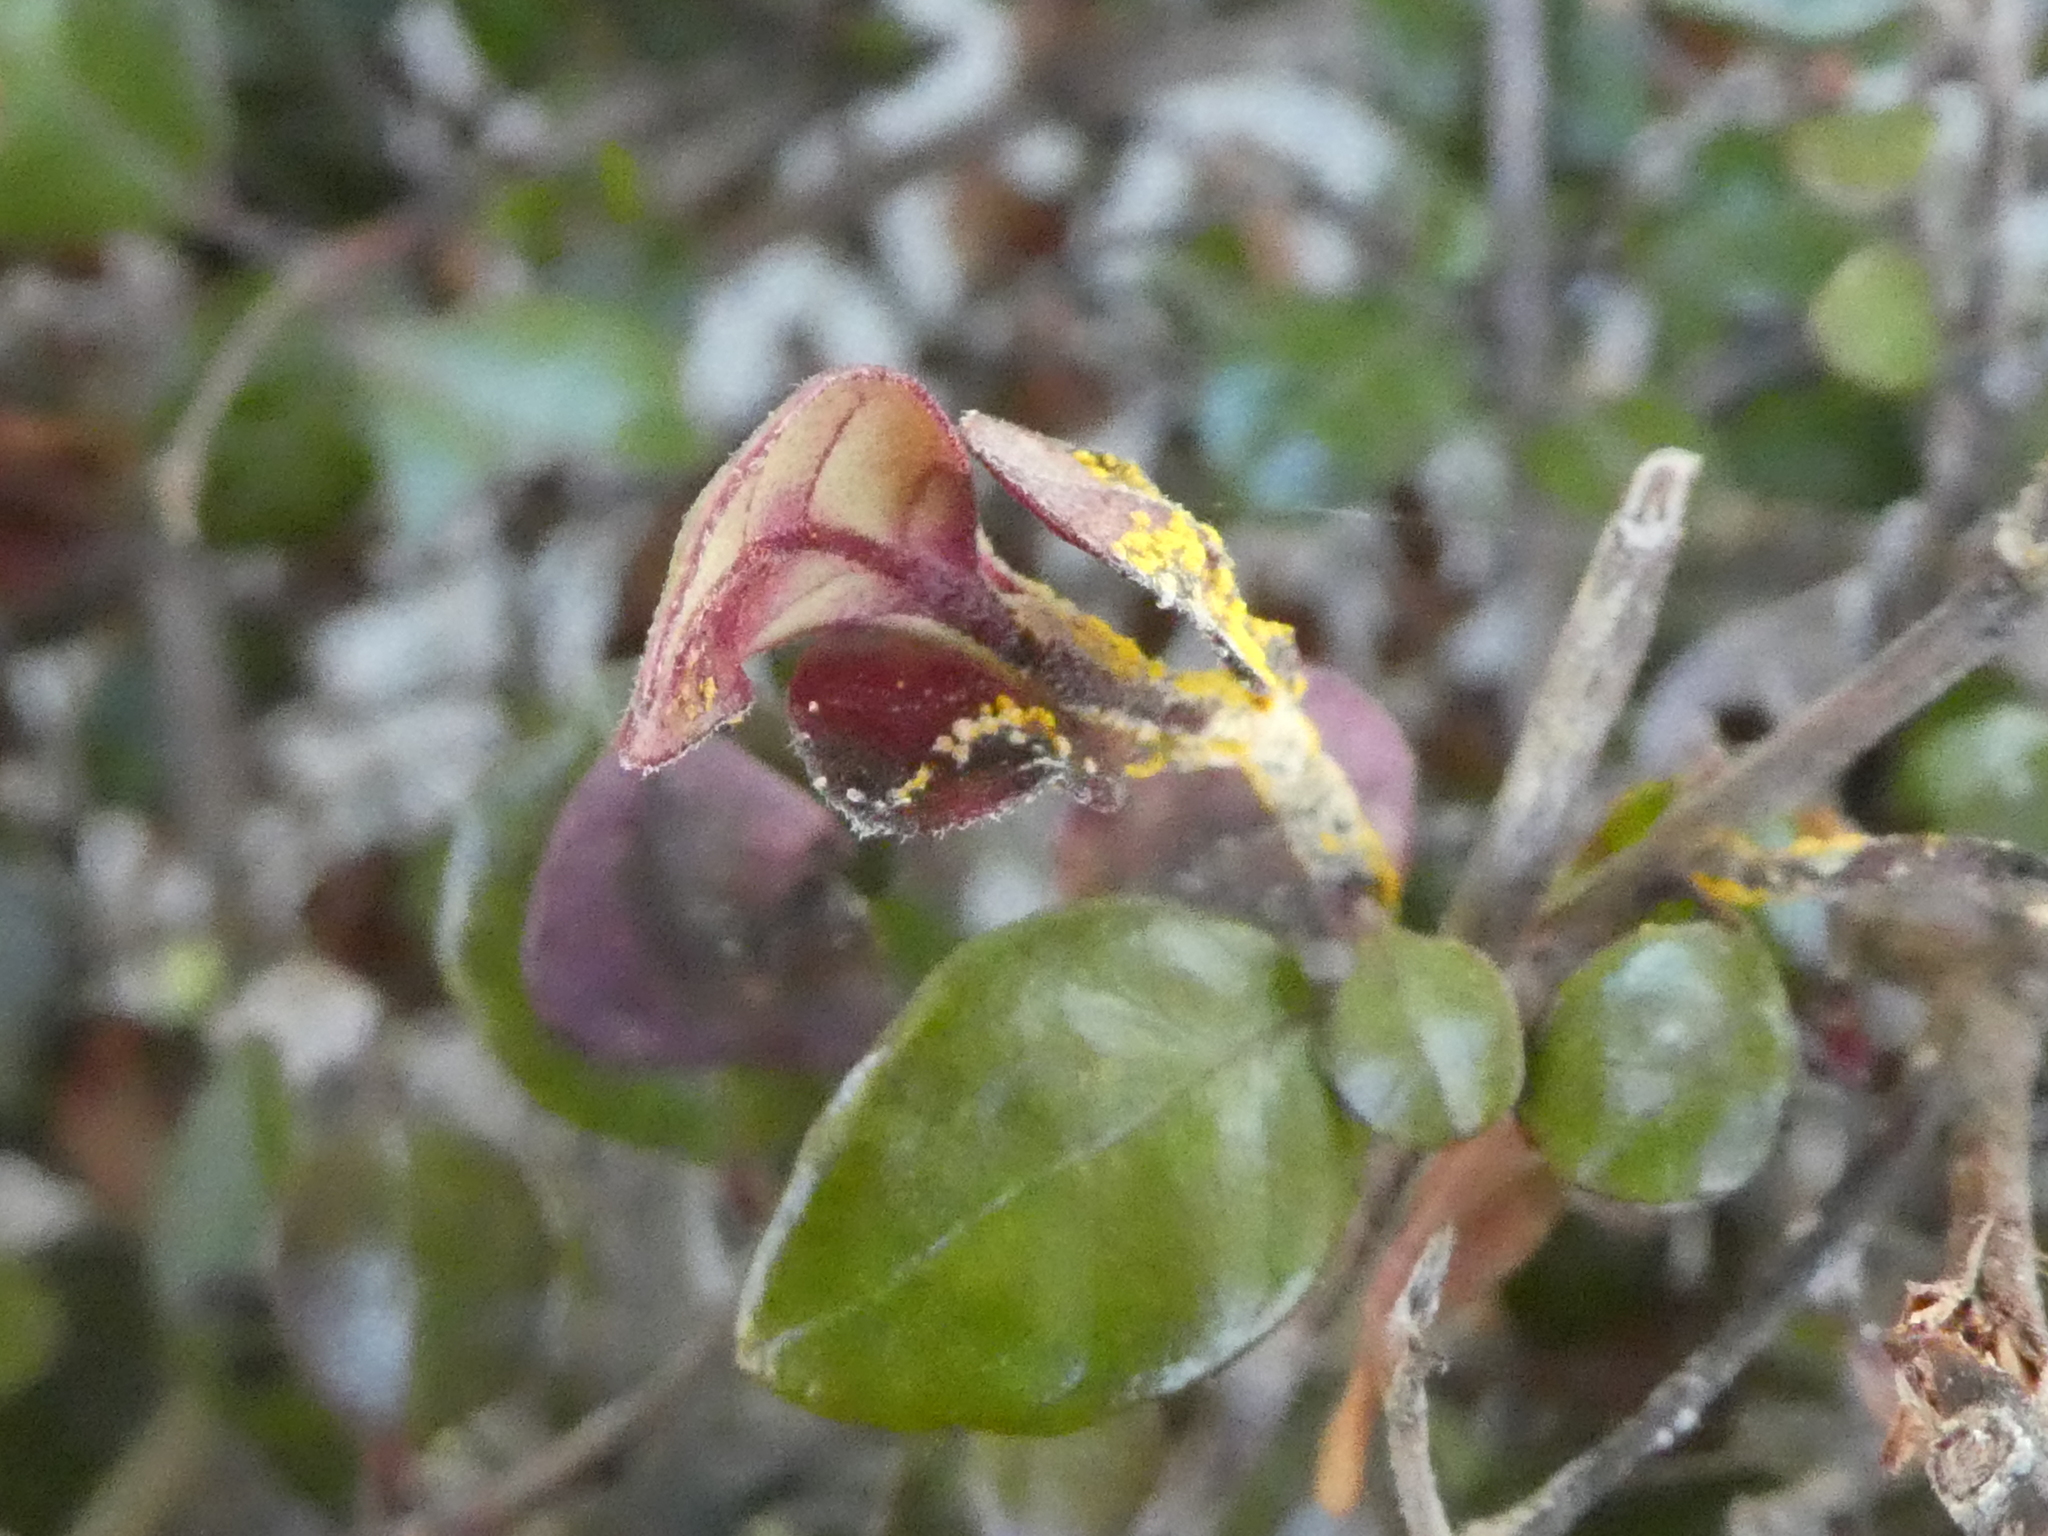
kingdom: Fungi
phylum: Basidiomycota
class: Pucciniomycetes
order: Pucciniales
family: Sphaerophragmiaceae
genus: Austropuccinia
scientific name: Austropuccinia psidii
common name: Myrtle rust
